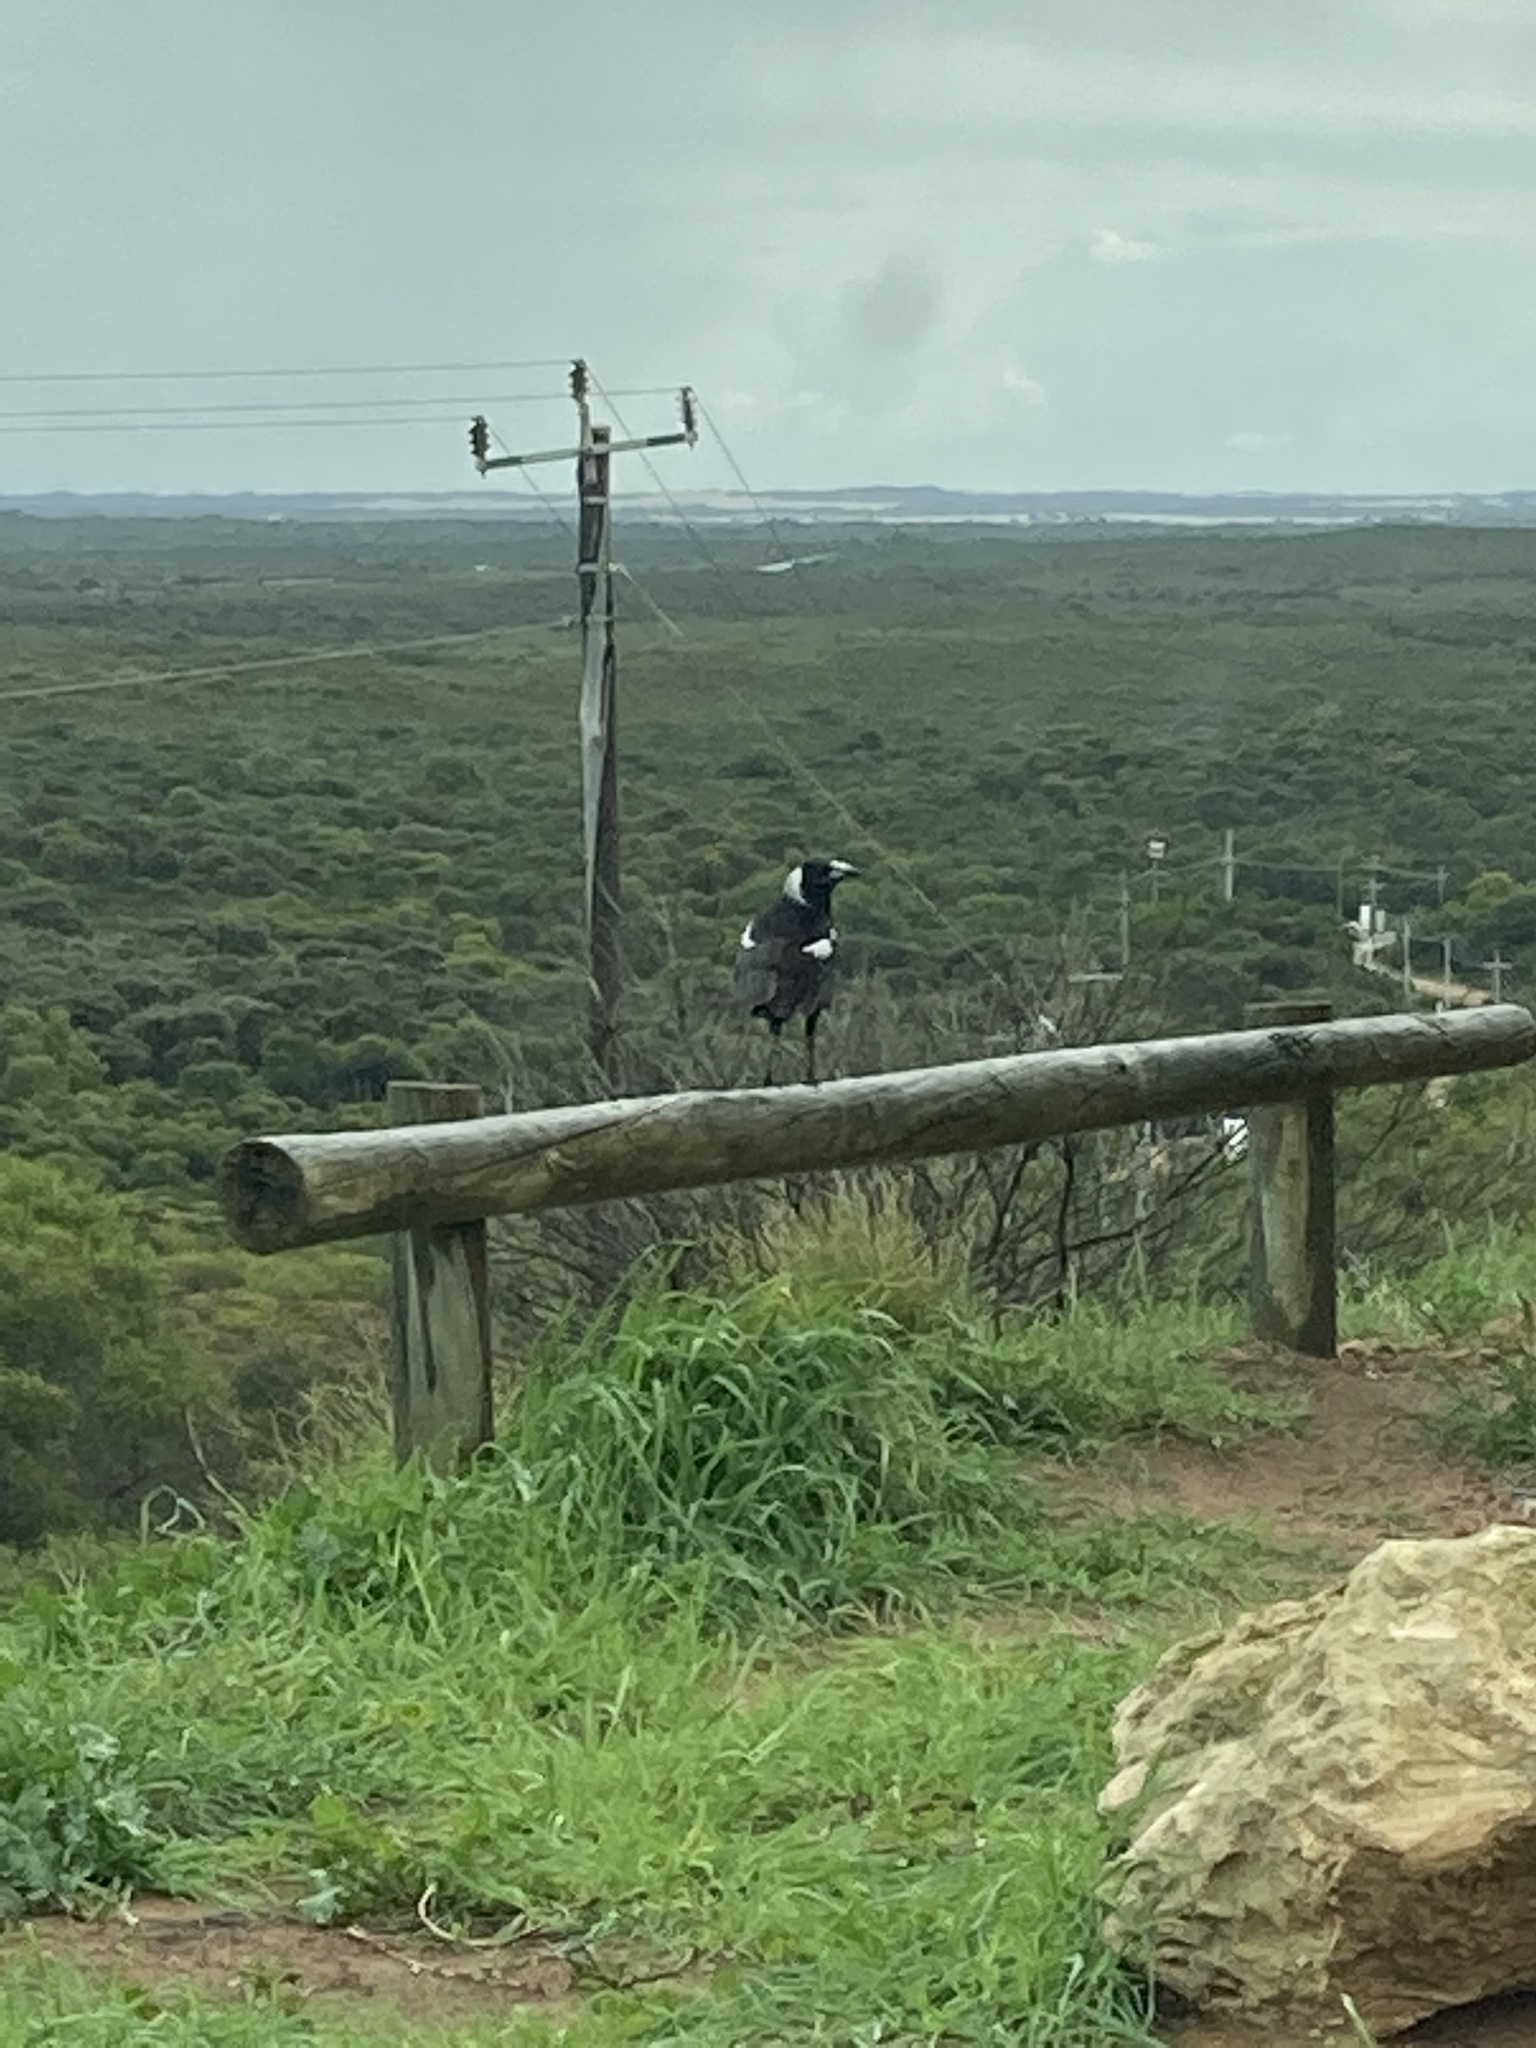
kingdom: Animalia
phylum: Chordata
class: Aves
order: Passeriformes
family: Cracticidae
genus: Gymnorhina
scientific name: Gymnorhina tibicen
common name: Australian magpie
